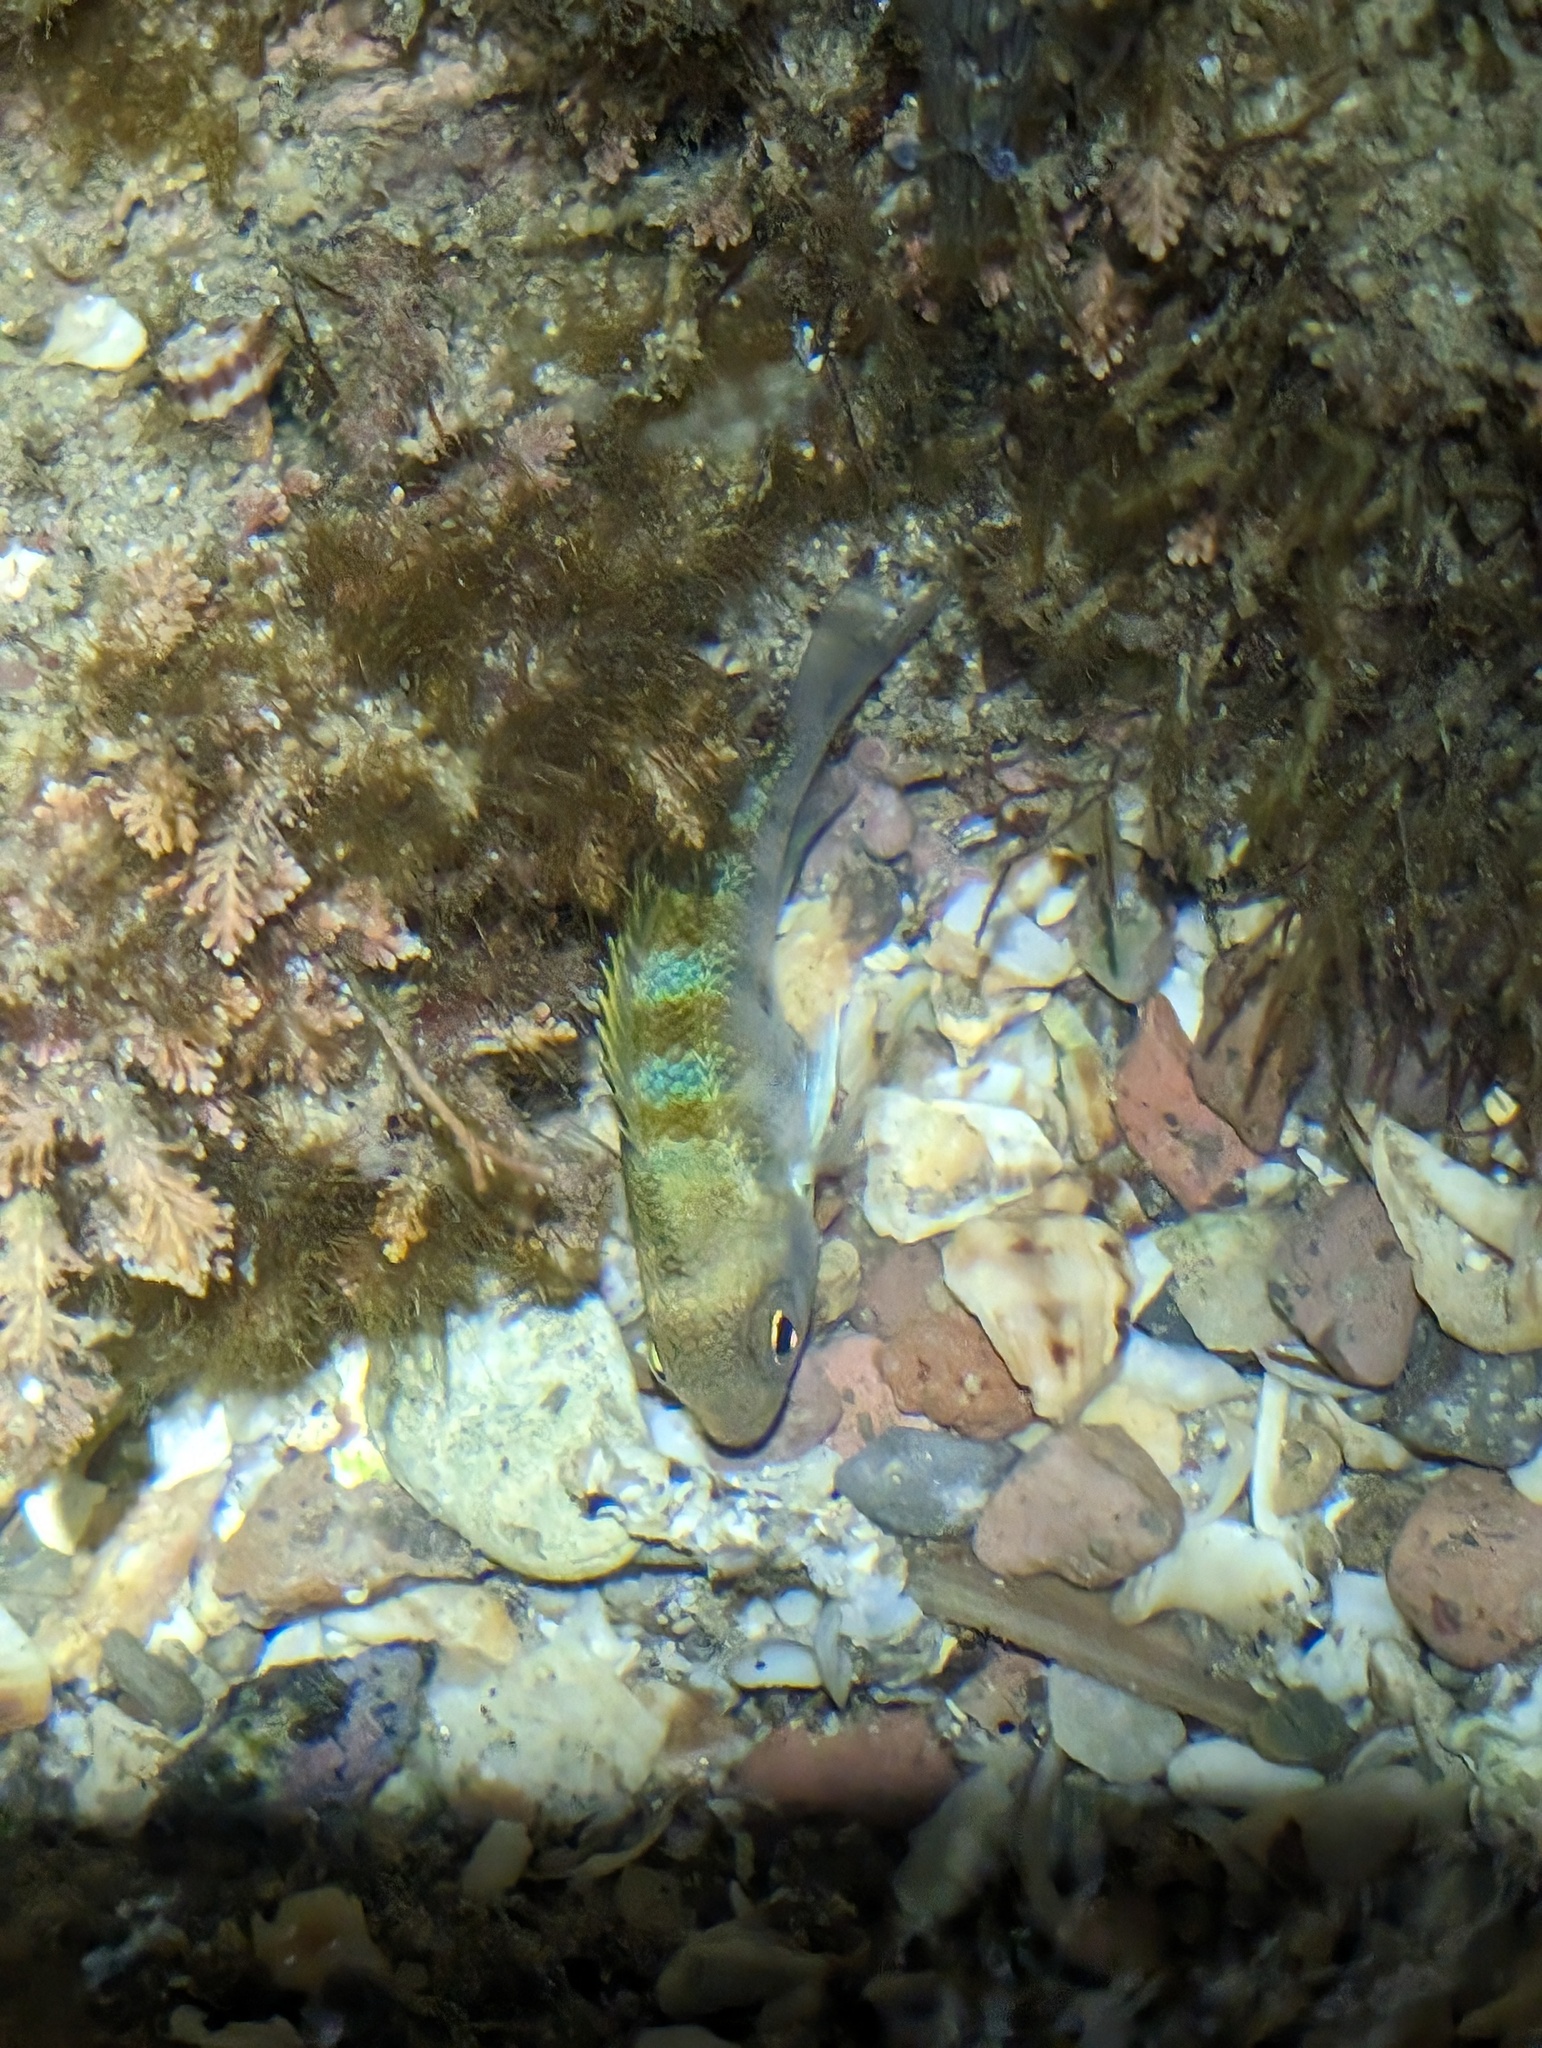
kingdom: Animalia
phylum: Chordata
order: Perciformes
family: Pomacentridae
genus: Abudefduf
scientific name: Abudefduf troschelii
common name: Panamic sergeant major
